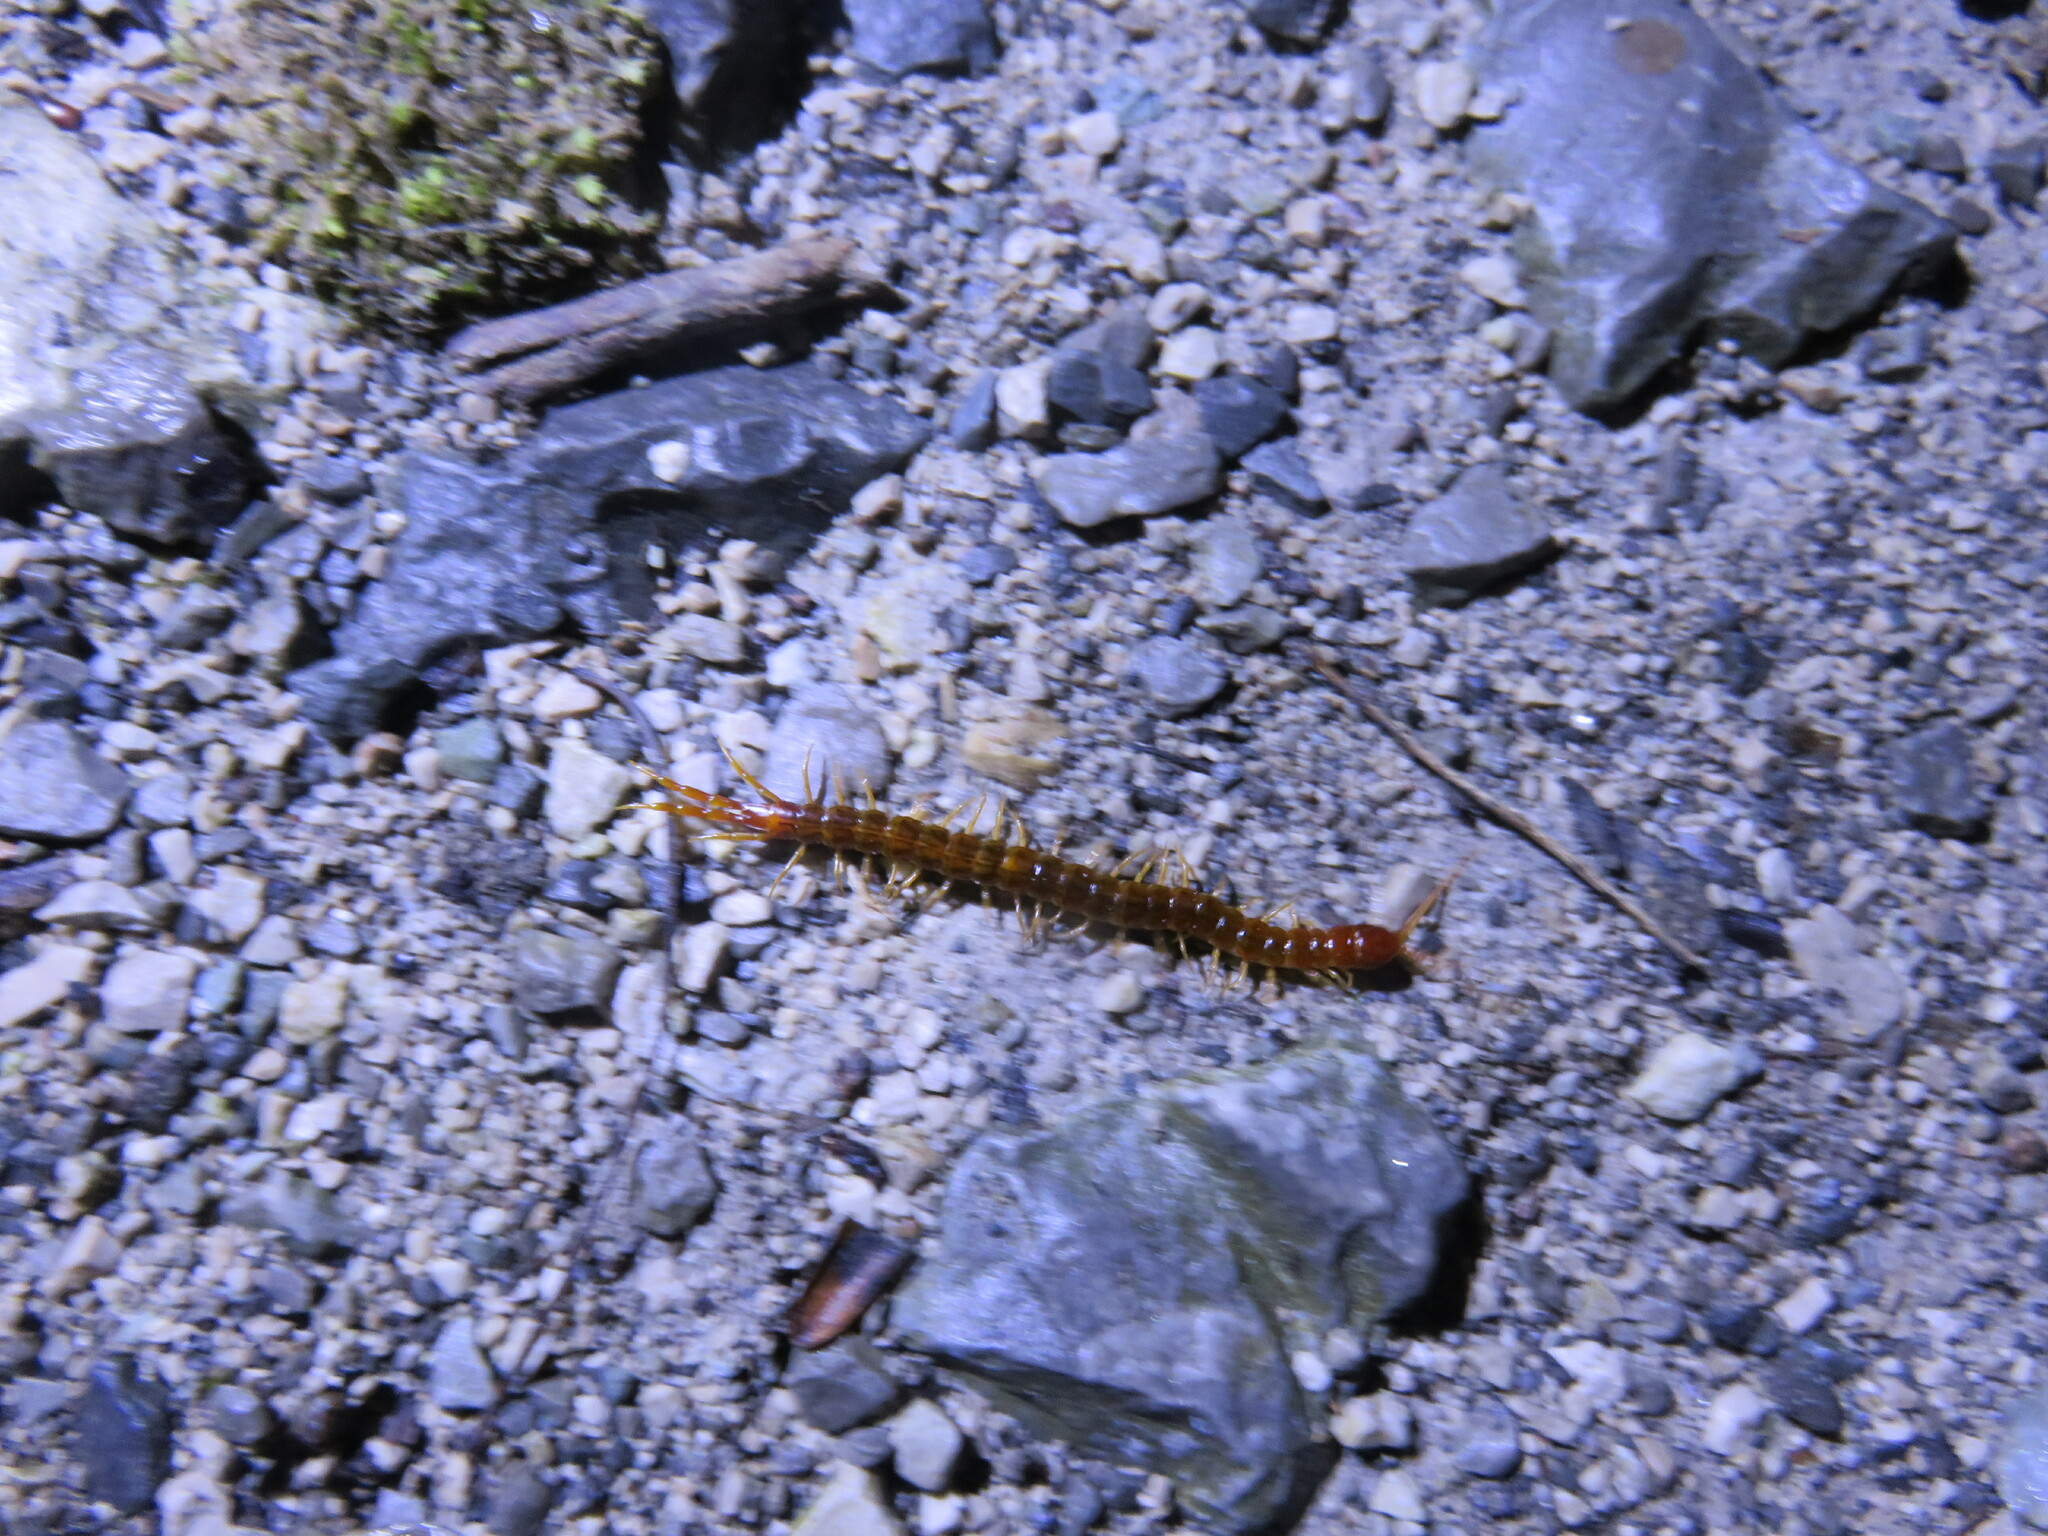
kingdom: Animalia
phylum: Arthropoda
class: Chilopoda
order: Scolopendromorpha
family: Scolopocryptopidae
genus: Scolopocryptops
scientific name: Scolopocryptops sexspinosus
